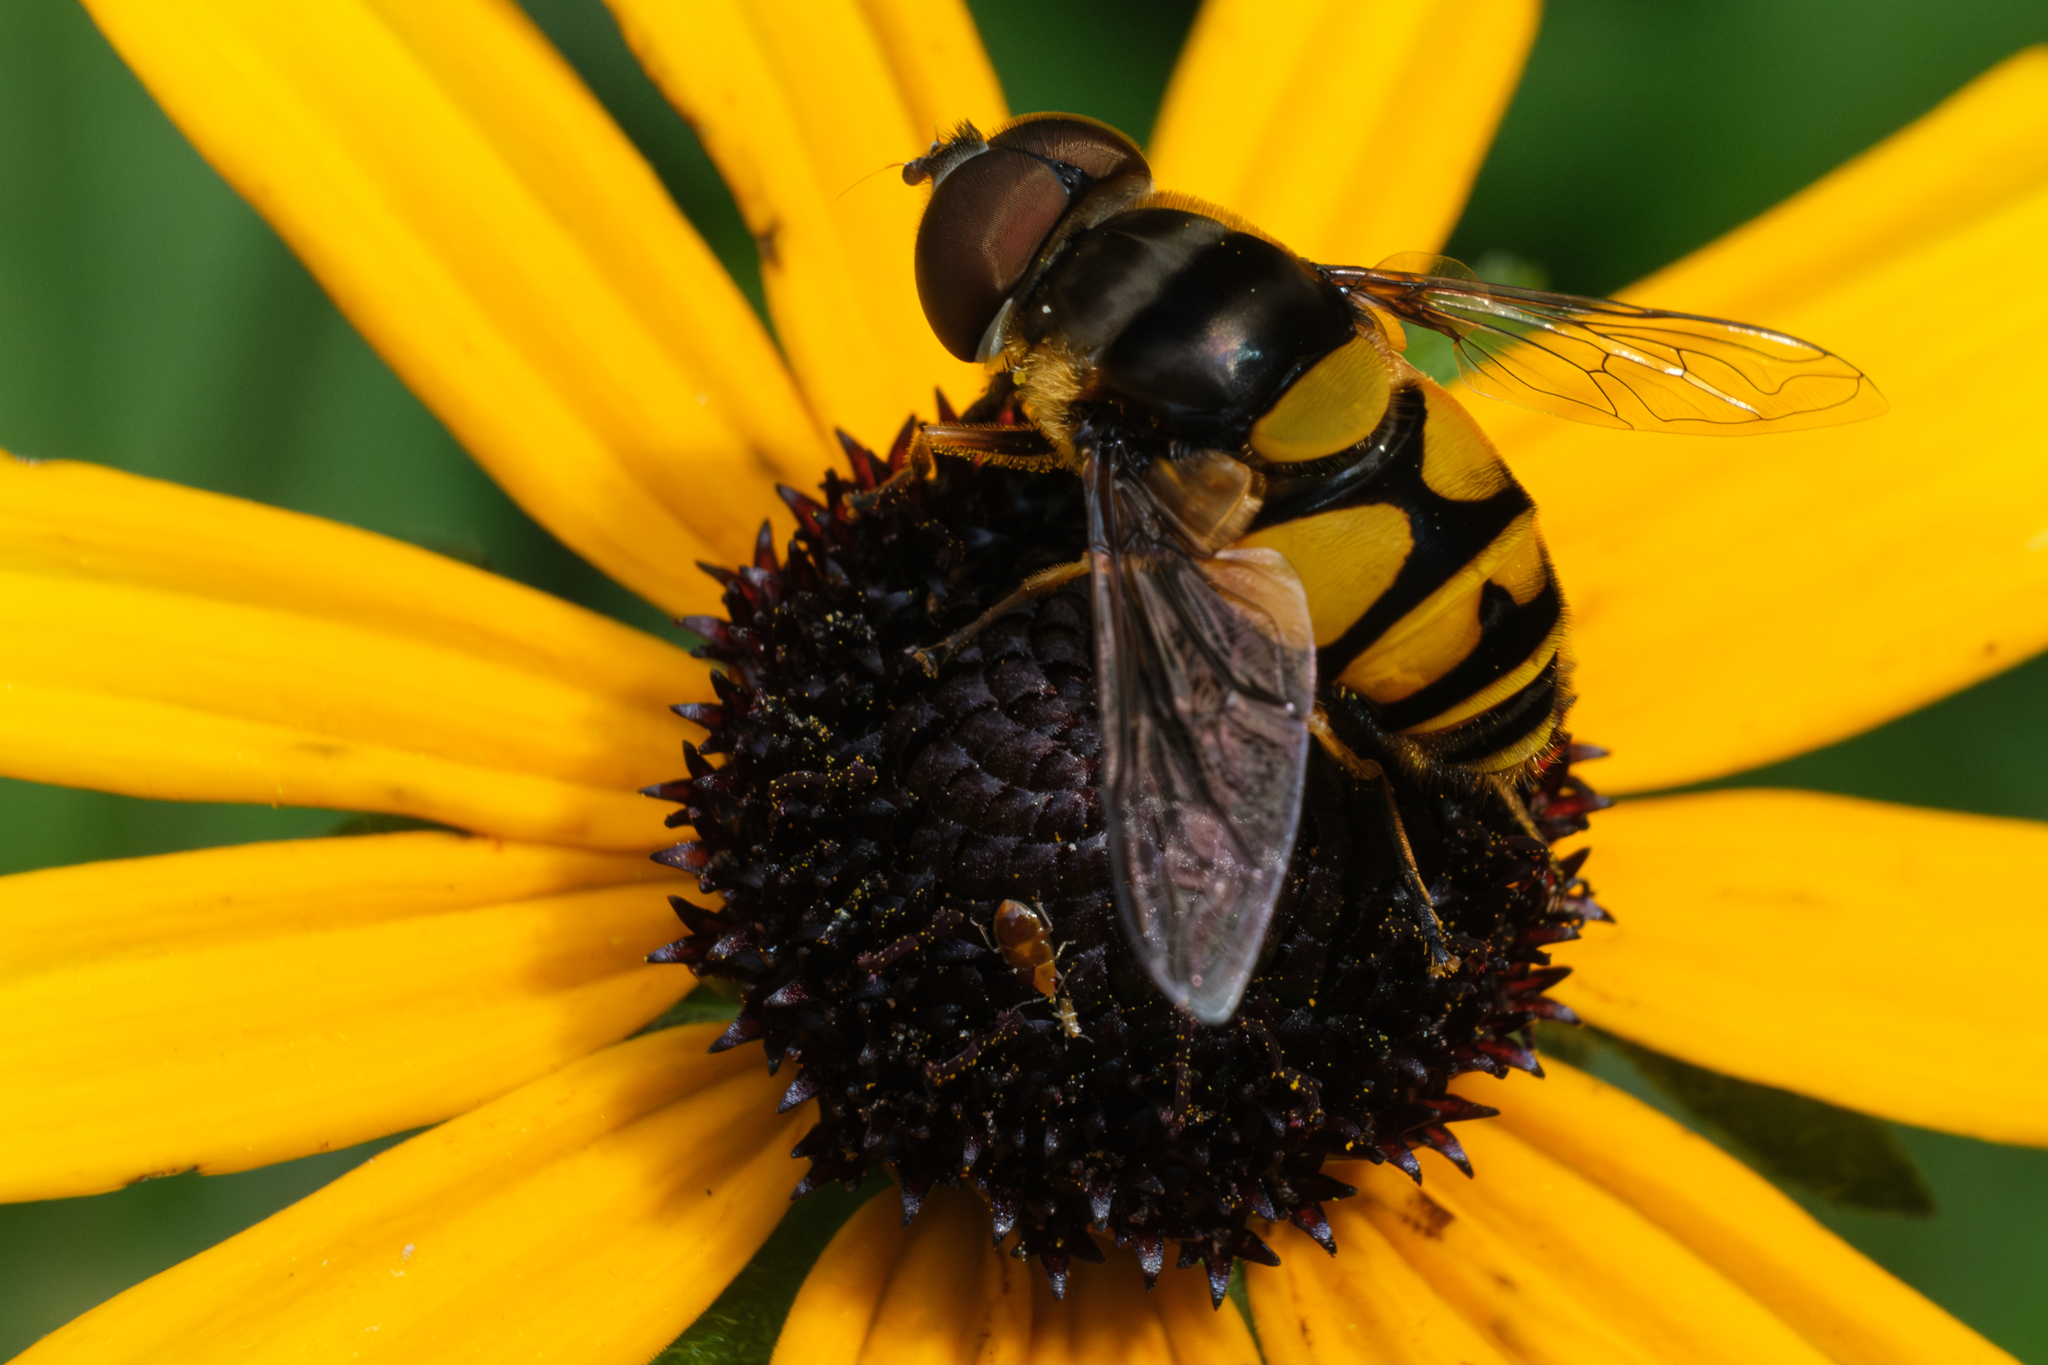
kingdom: Animalia
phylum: Arthropoda
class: Insecta
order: Diptera
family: Syrphidae
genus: Eristalis
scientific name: Eristalis transversa
